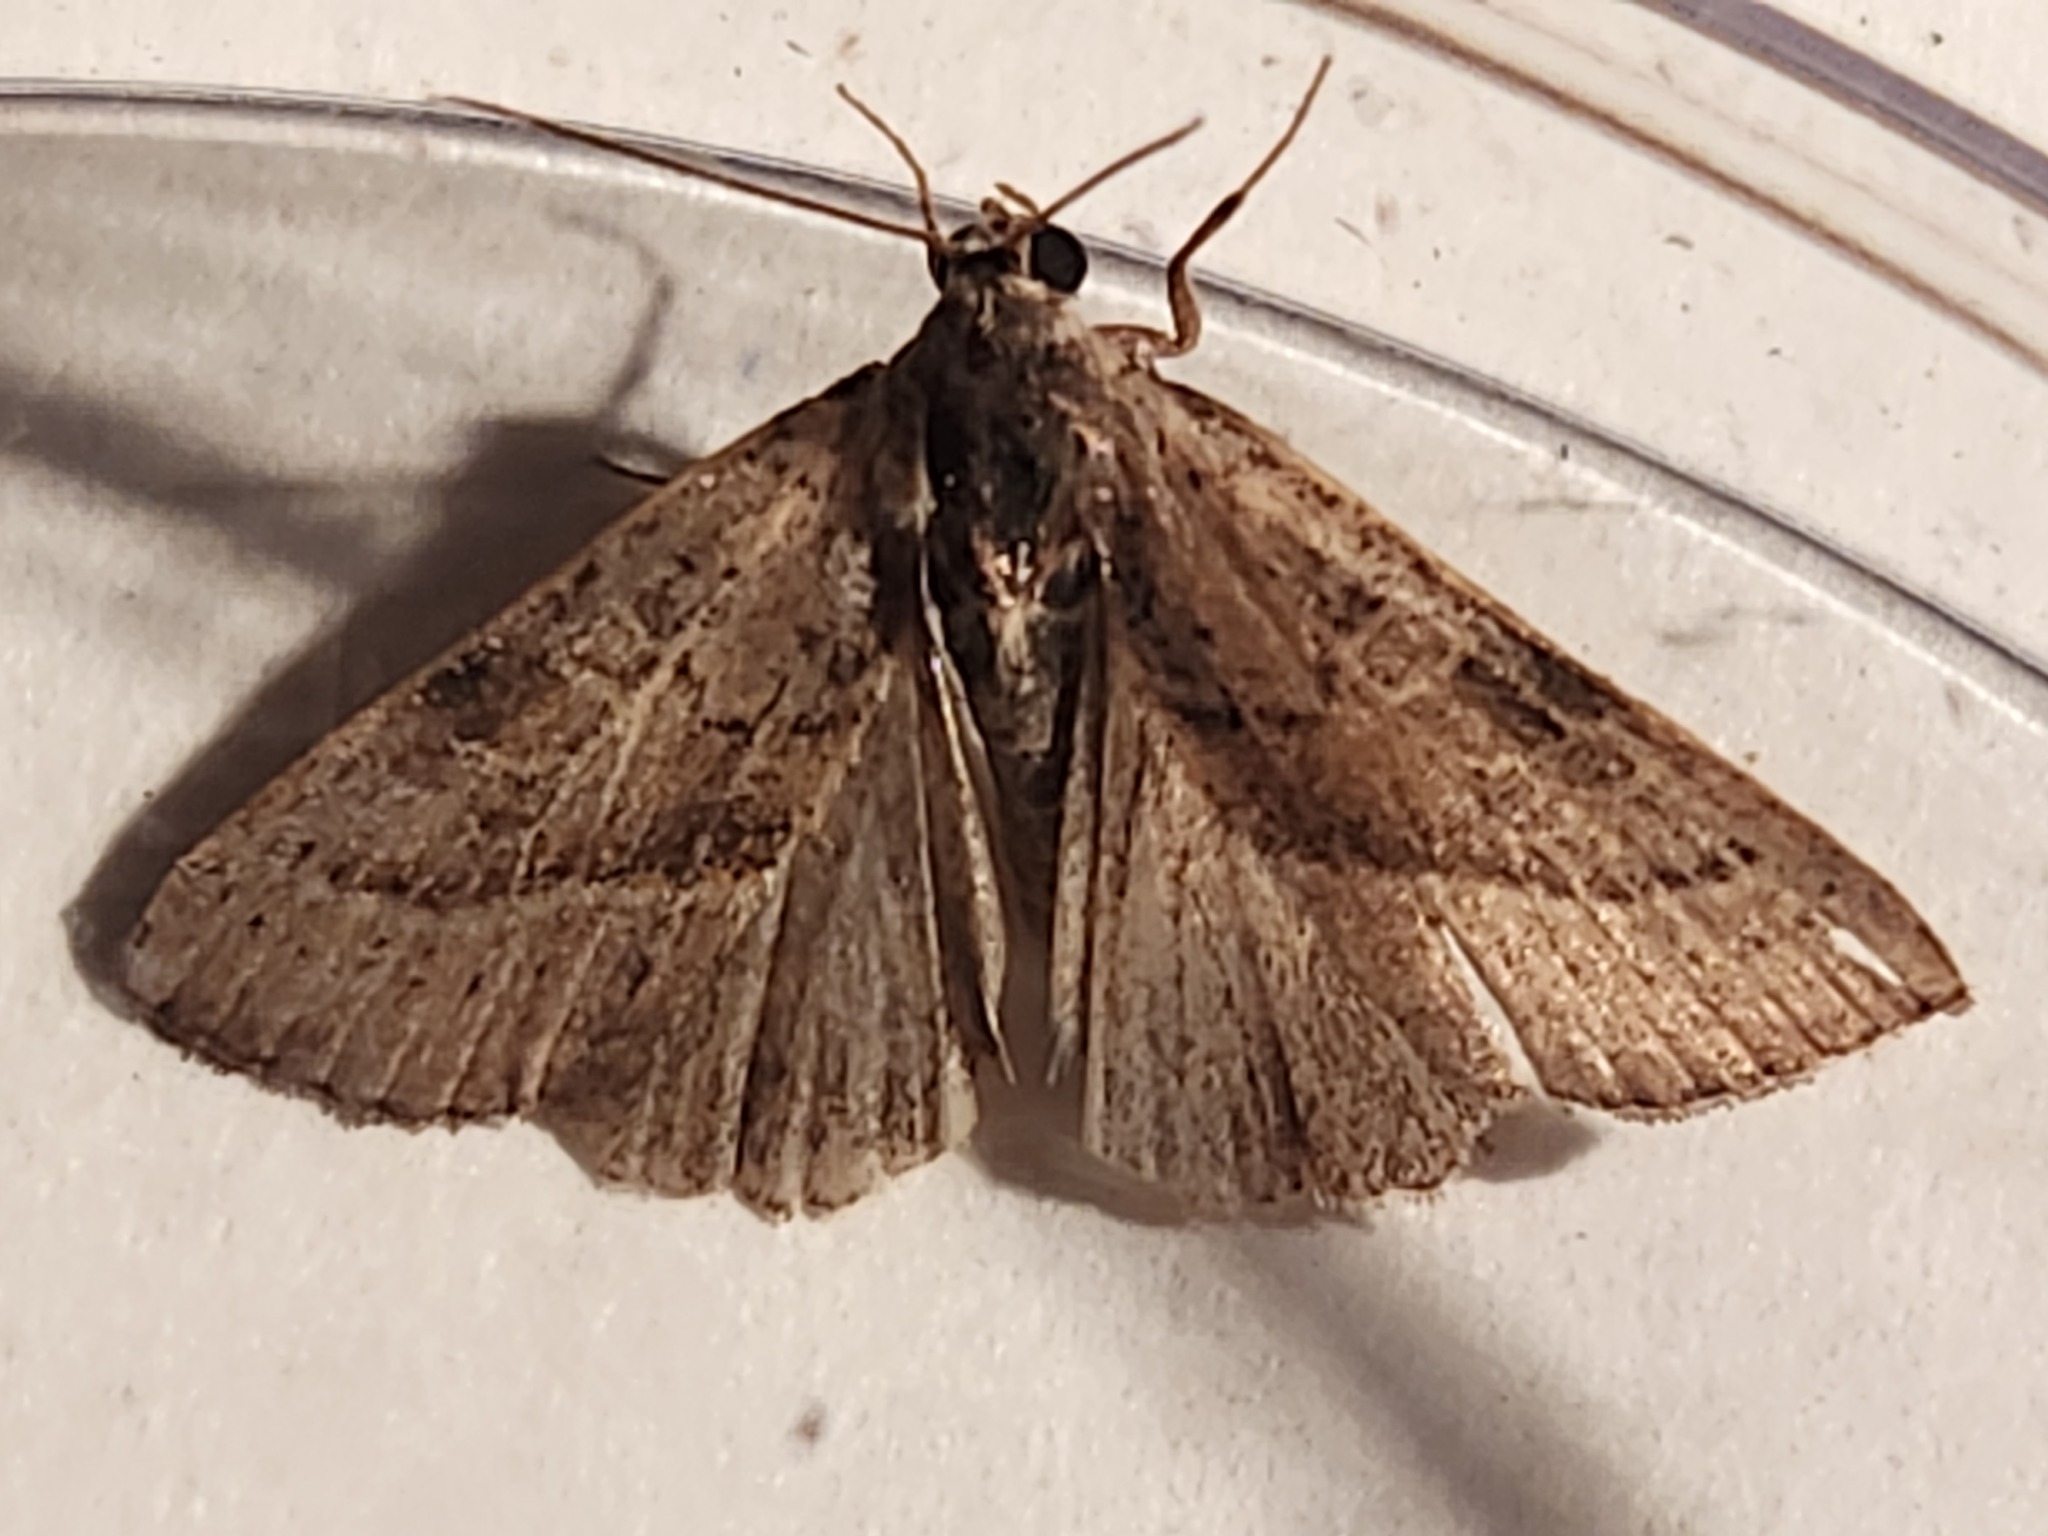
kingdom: Animalia
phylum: Arthropoda
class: Insecta
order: Lepidoptera
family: Noctuidae
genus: Galgula
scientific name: Galgula partita
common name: Wedgeling
